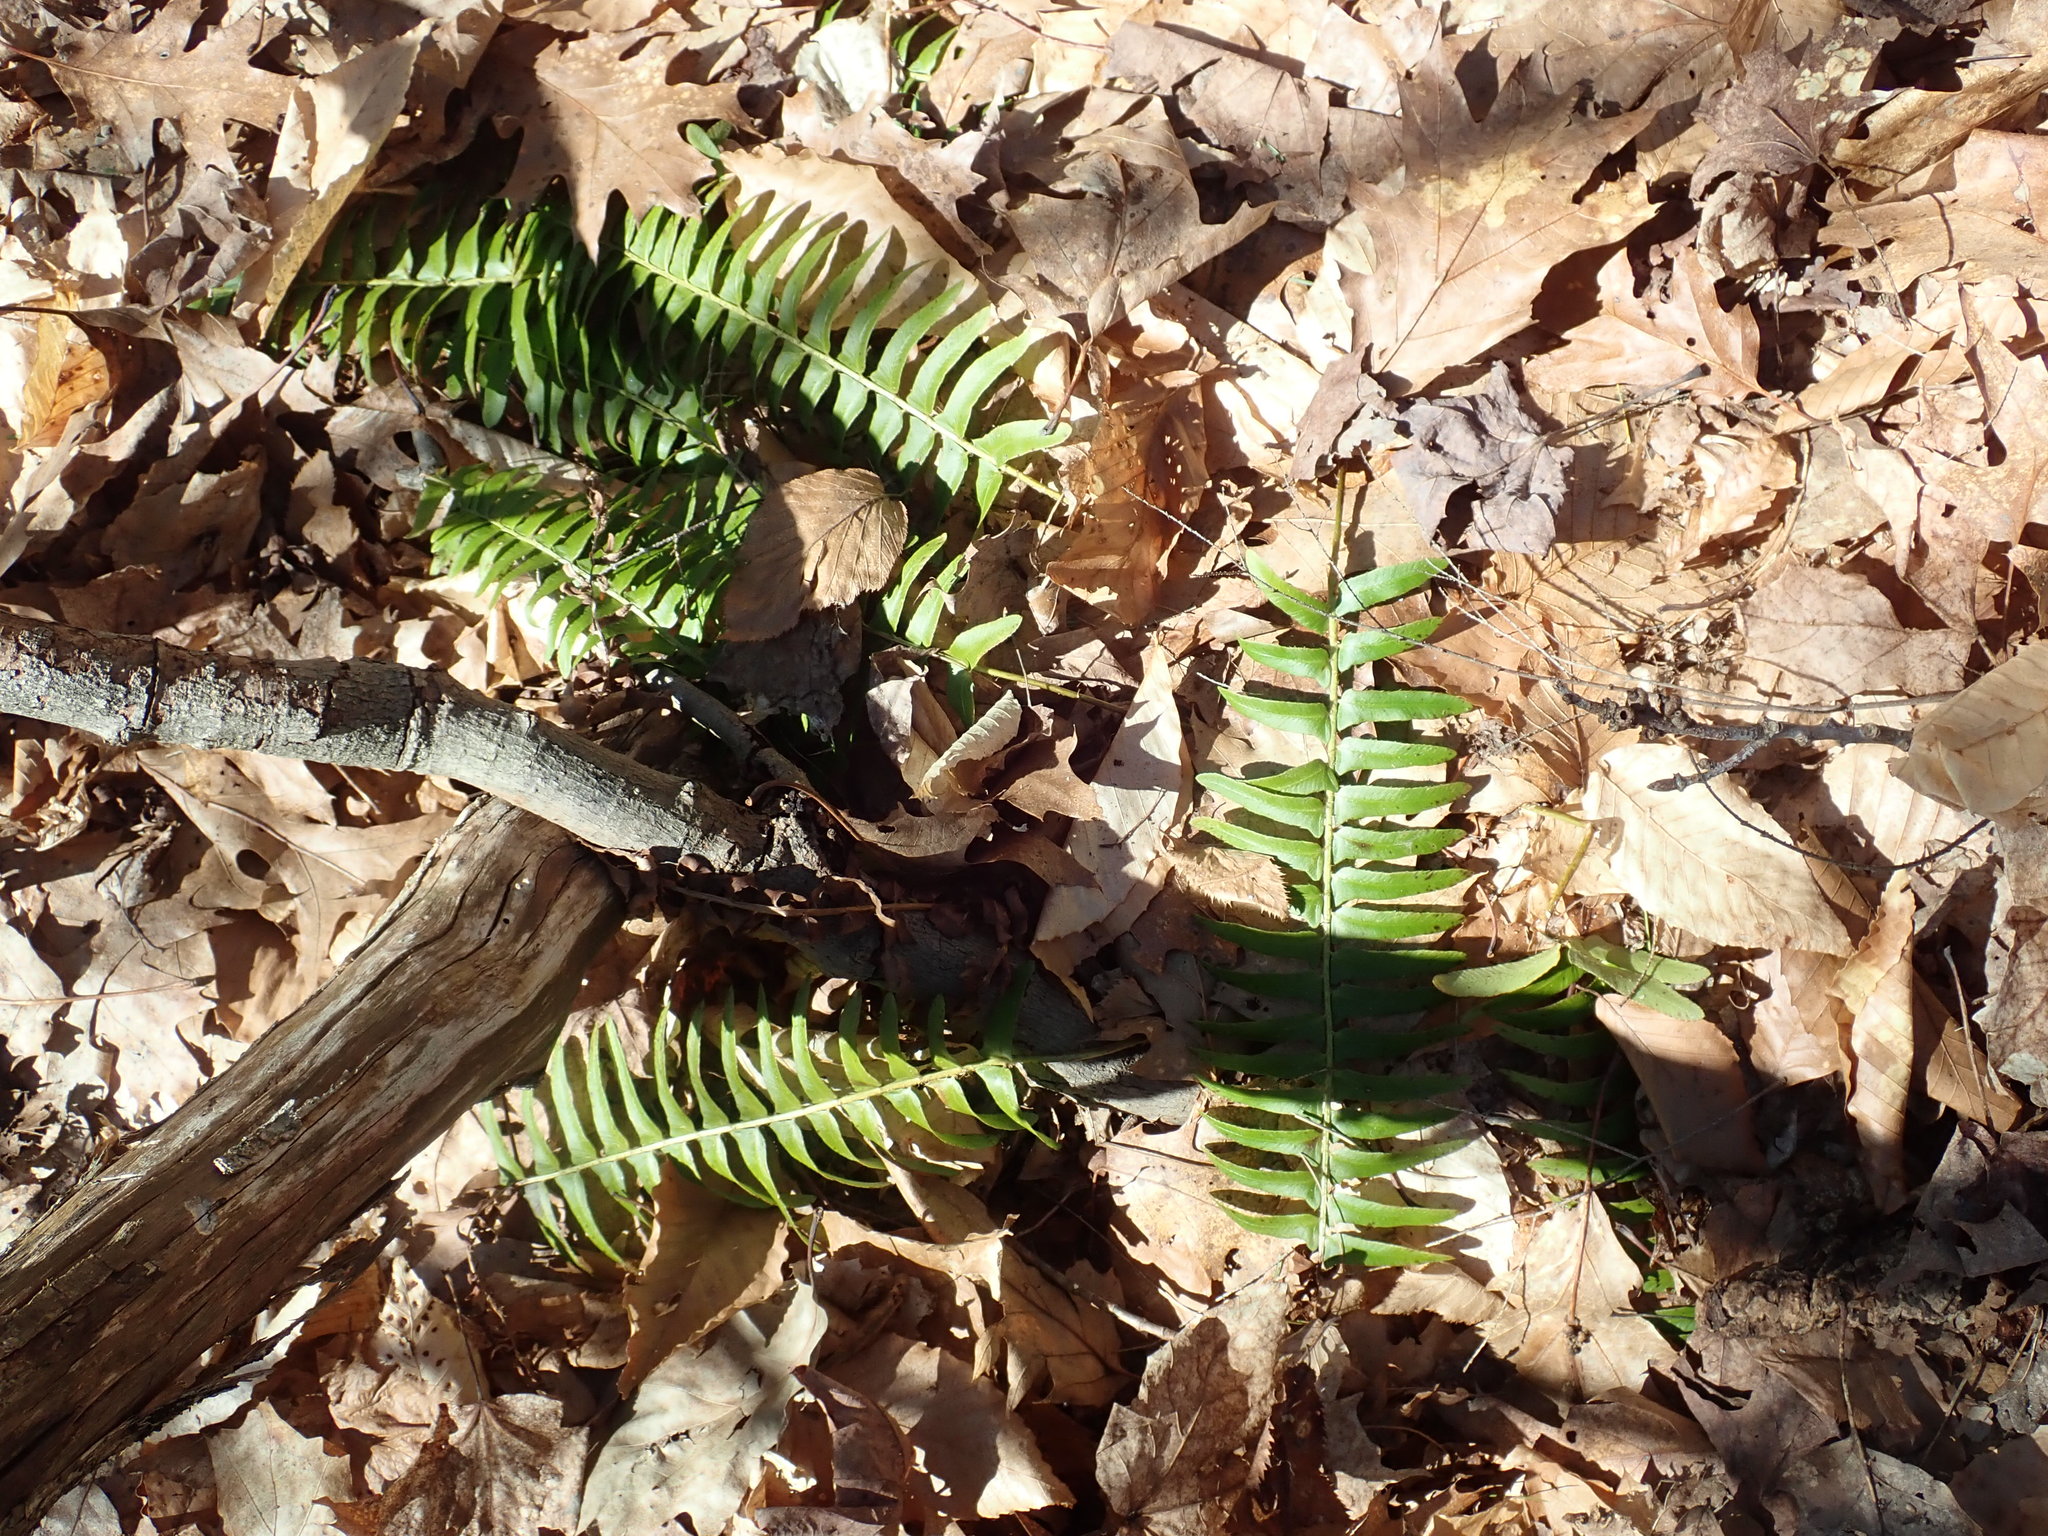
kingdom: Plantae
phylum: Tracheophyta
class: Polypodiopsida
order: Polypodiales
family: Dryopteridaceae
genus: Polystichum
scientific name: Polystichum acrostichoides
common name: Christmas fern
